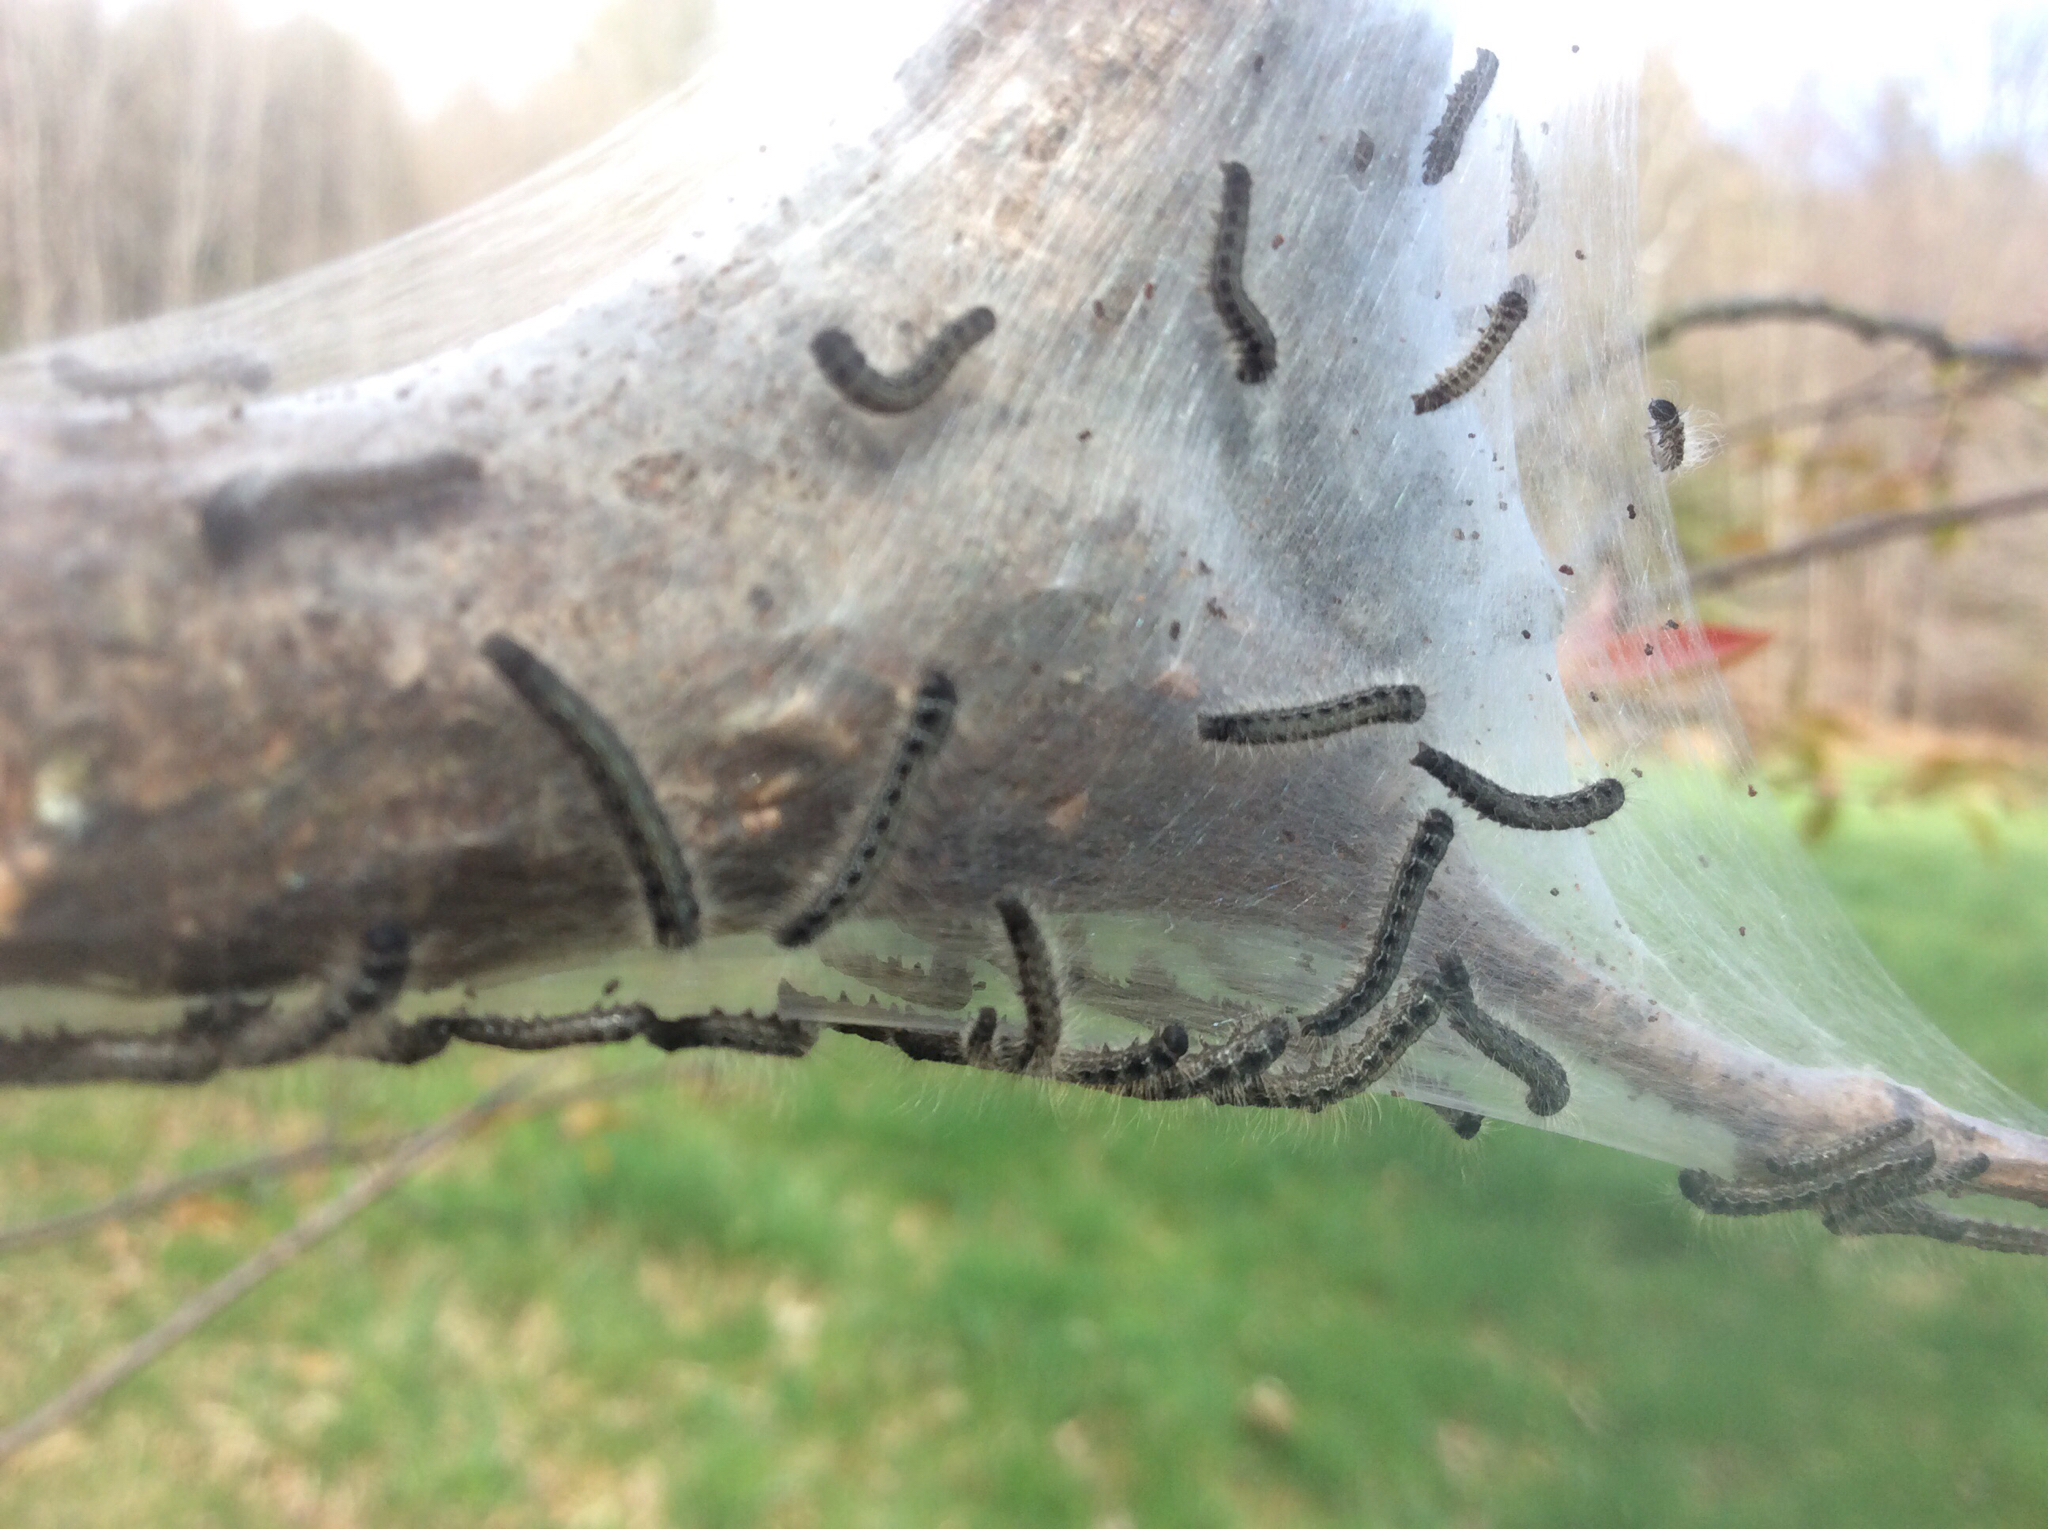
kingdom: Animalia
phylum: Arthropoda
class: Insecta
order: Lepidoptera
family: Lasiocampidae
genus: Malacosoma
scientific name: Malacosoma americana
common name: Eastern tent caterpillar moth
